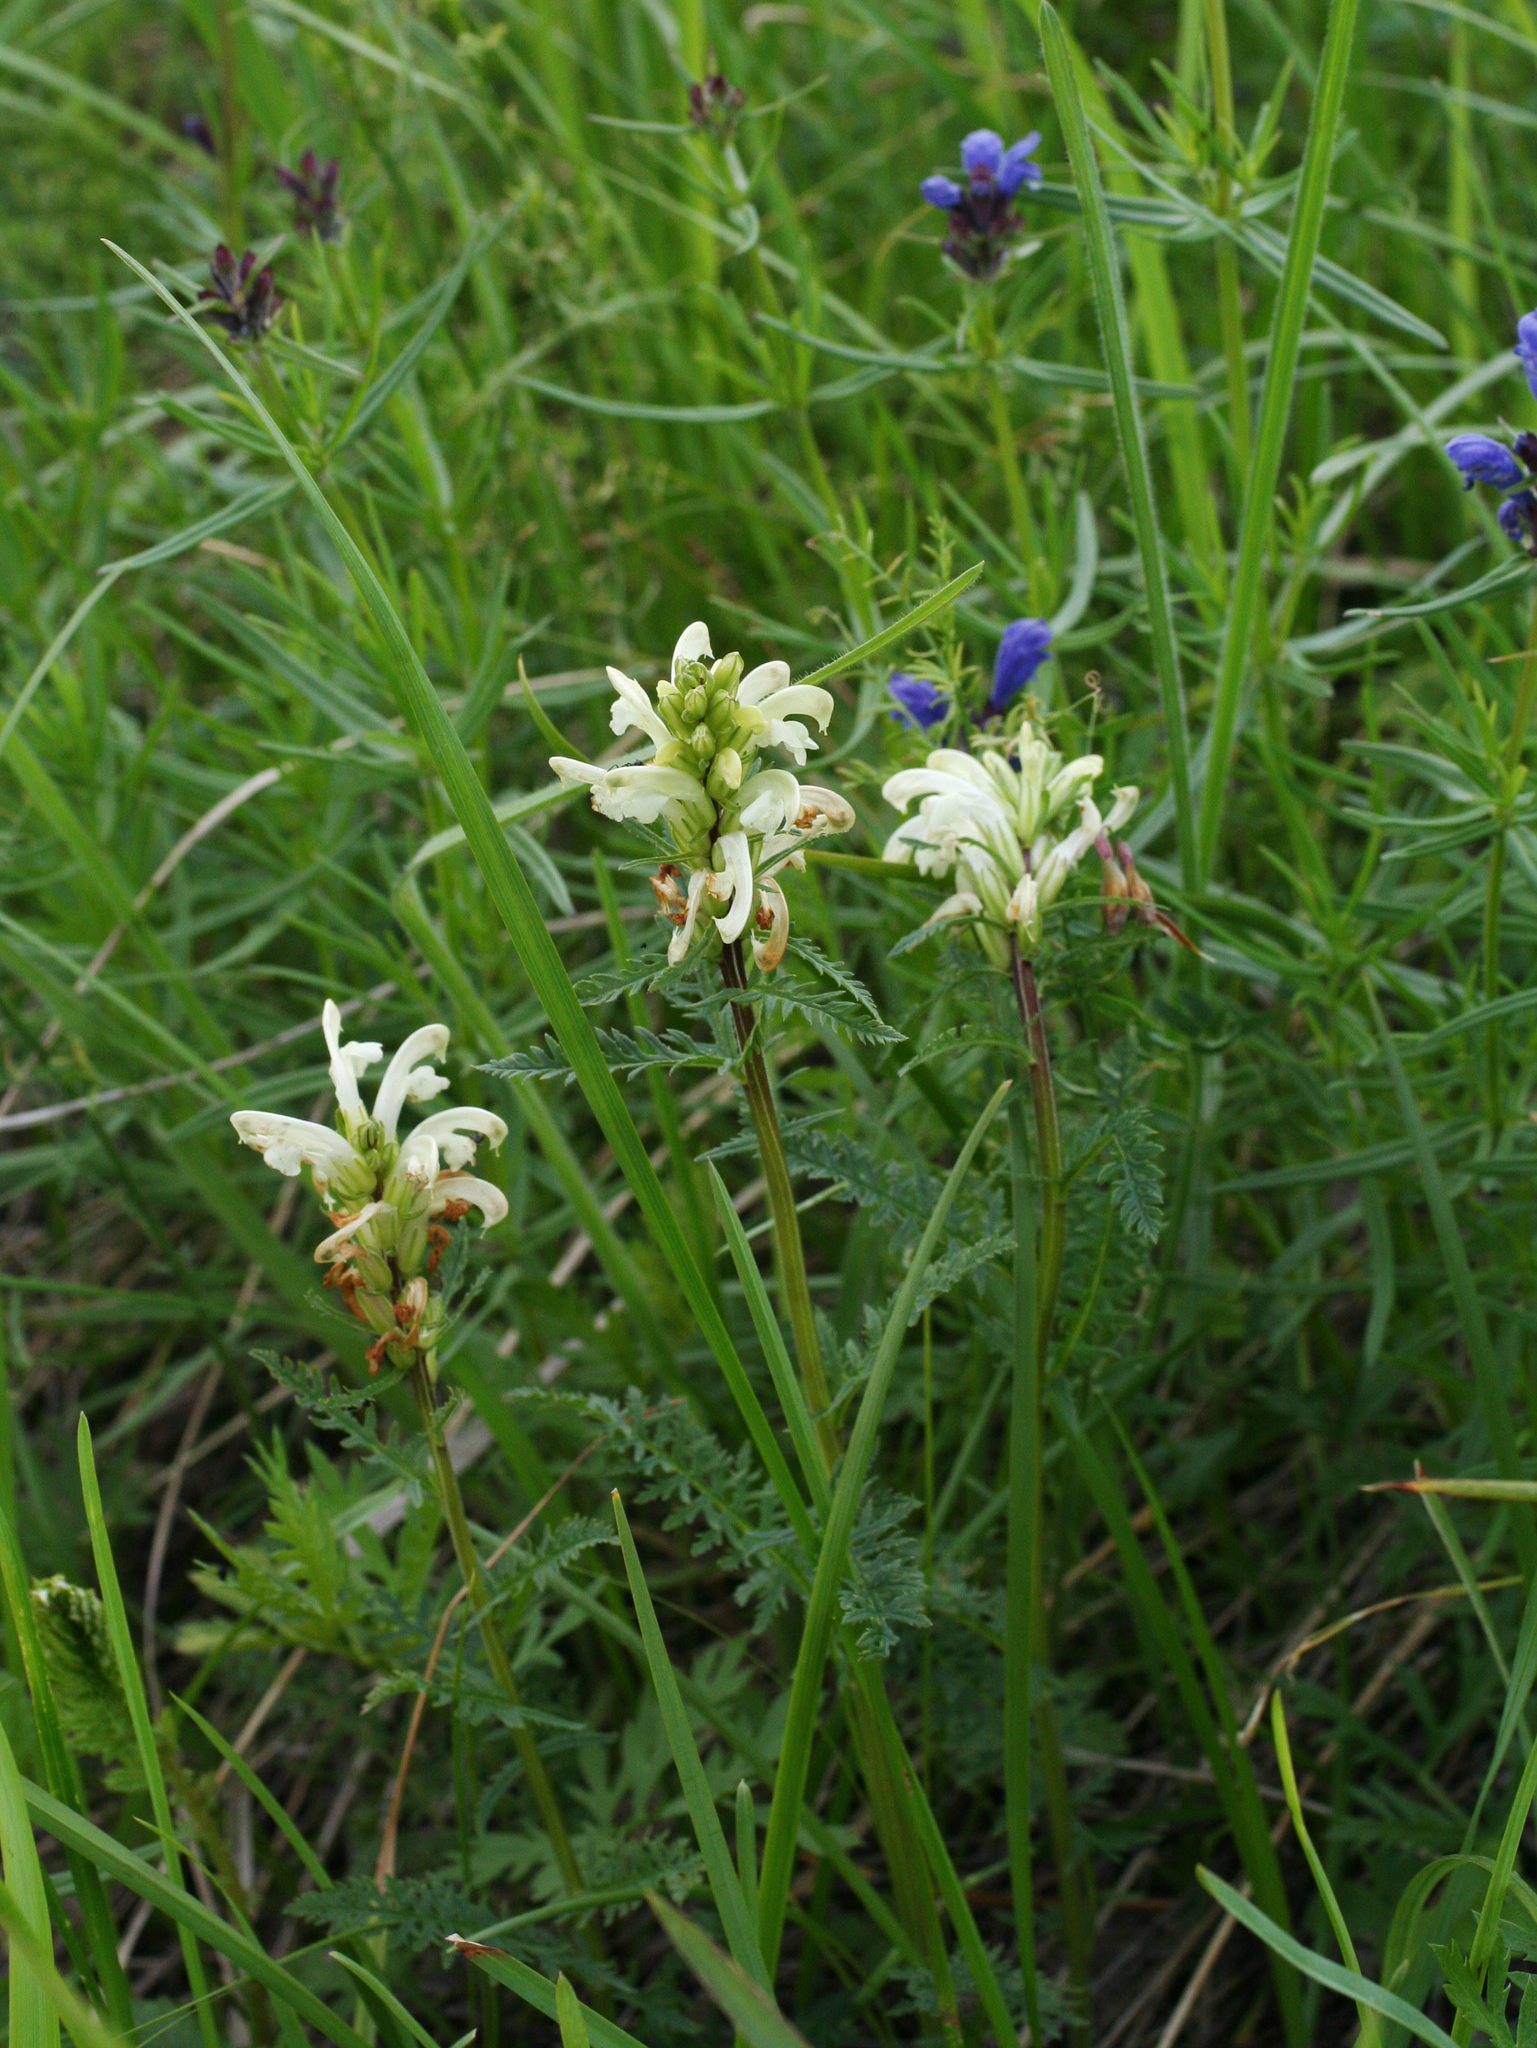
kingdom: Plantae
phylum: Tracheophyta
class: Magnoliopsida
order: Lamiales
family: Orobanchaceae
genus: Pedicularis
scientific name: Pedicularis sibirica
